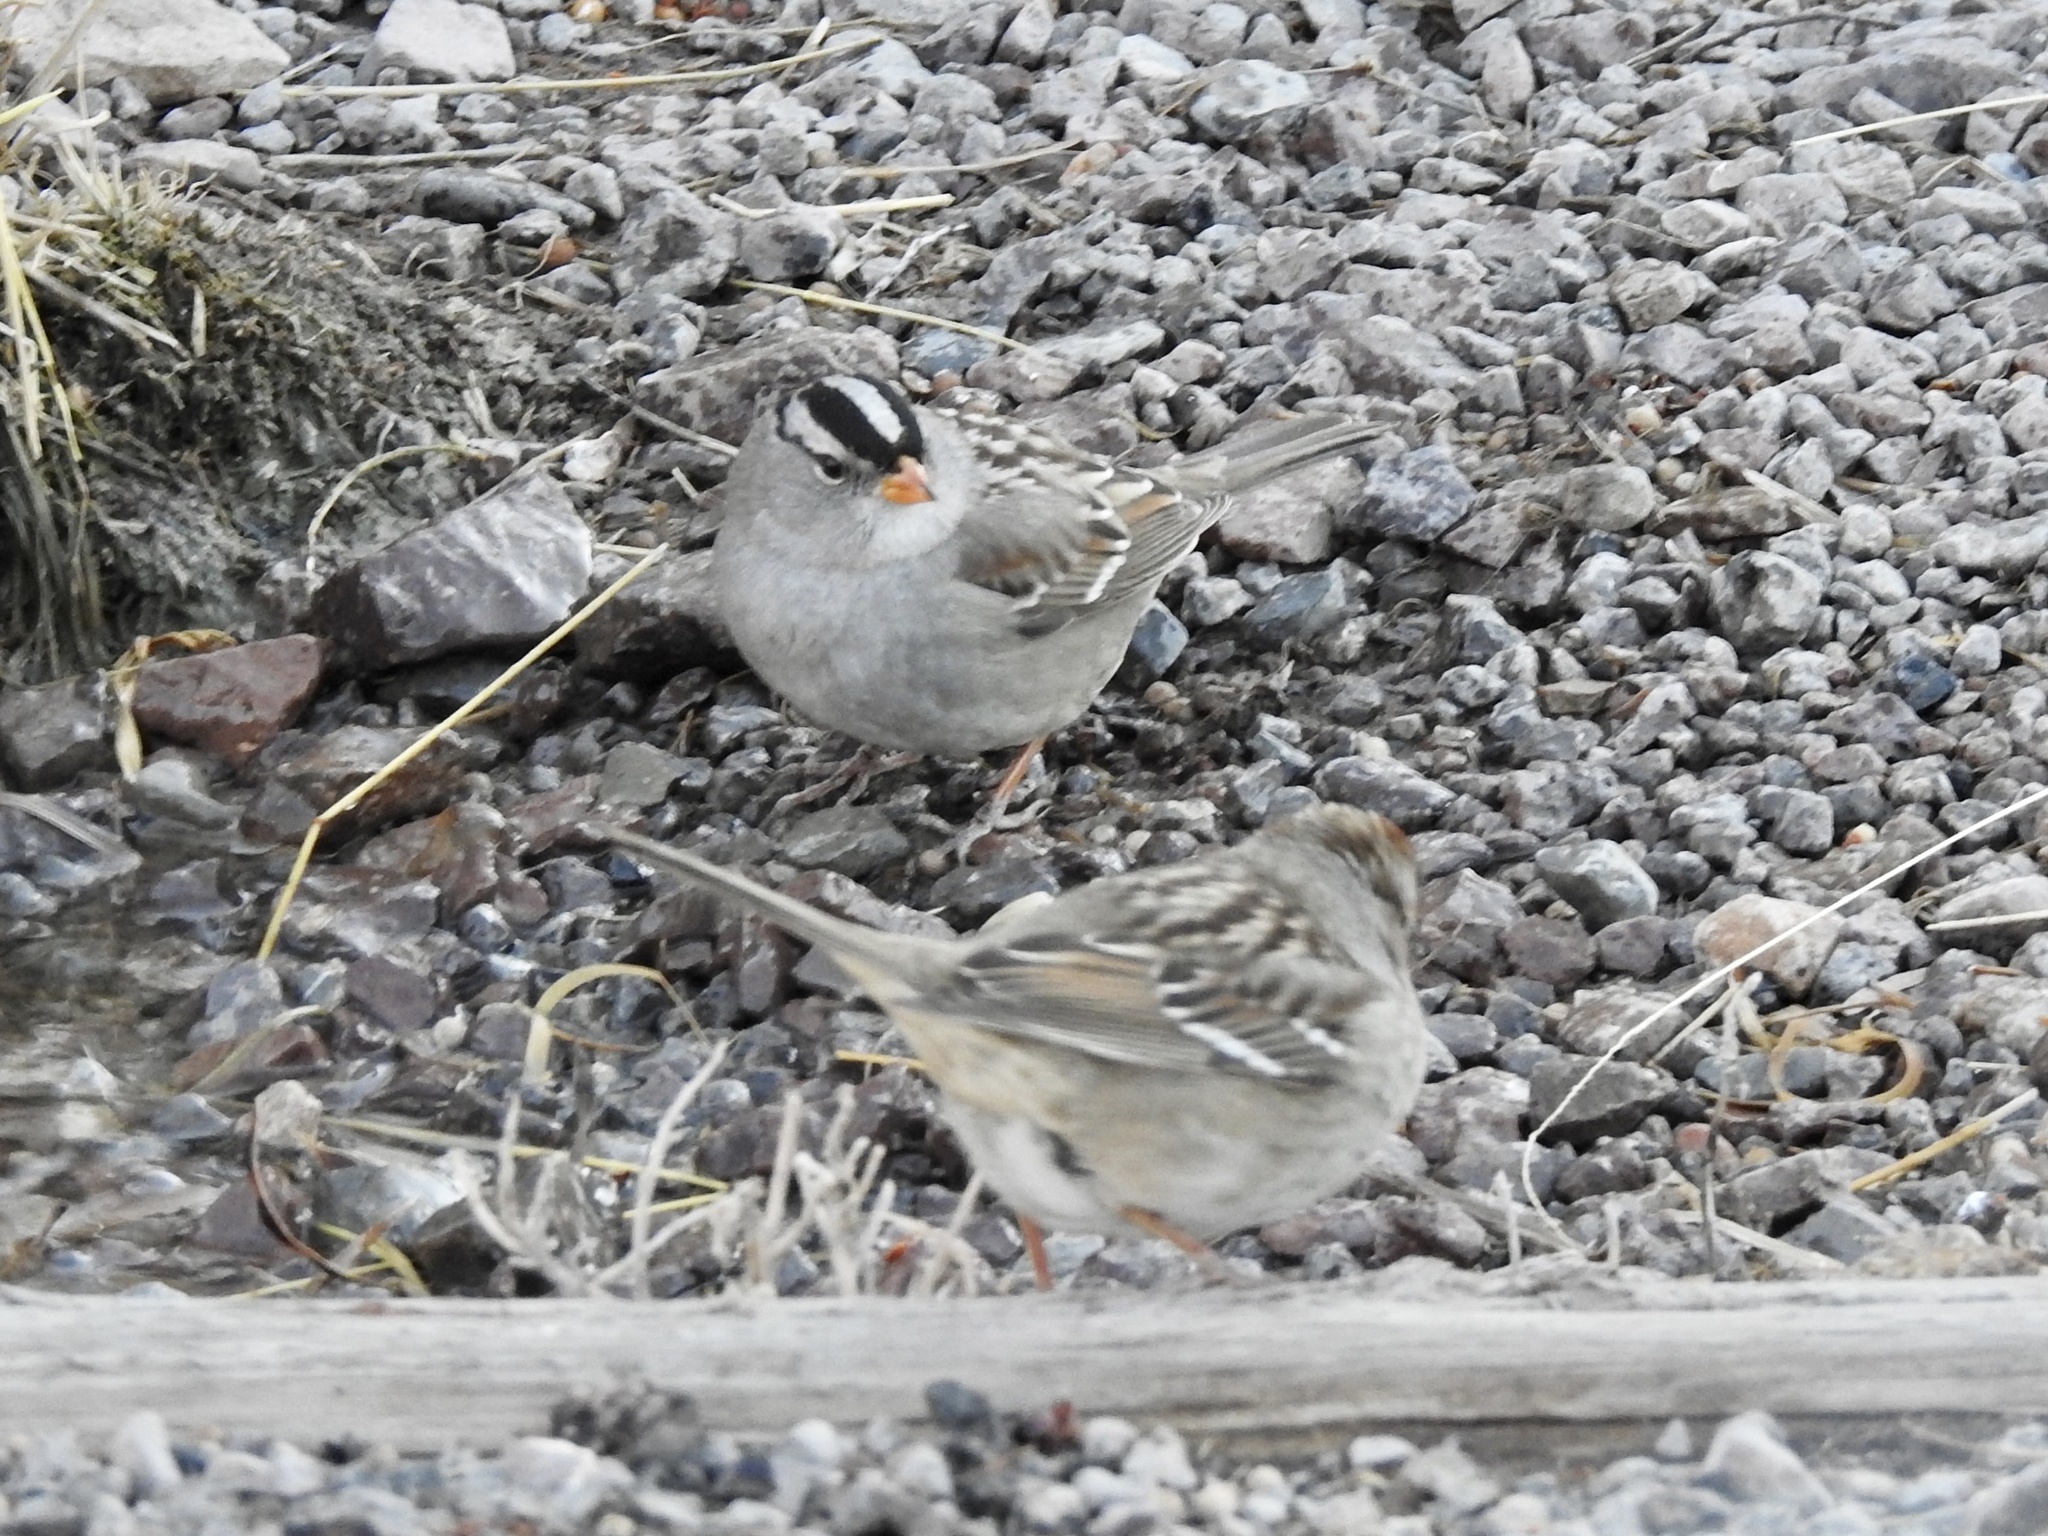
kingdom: Animalia
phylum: Chordata
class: Aves
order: Passeriformes
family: Passerellidae
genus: Zonotrichia
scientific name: Zonotrichia leucophrys
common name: White-crowned sparrow
